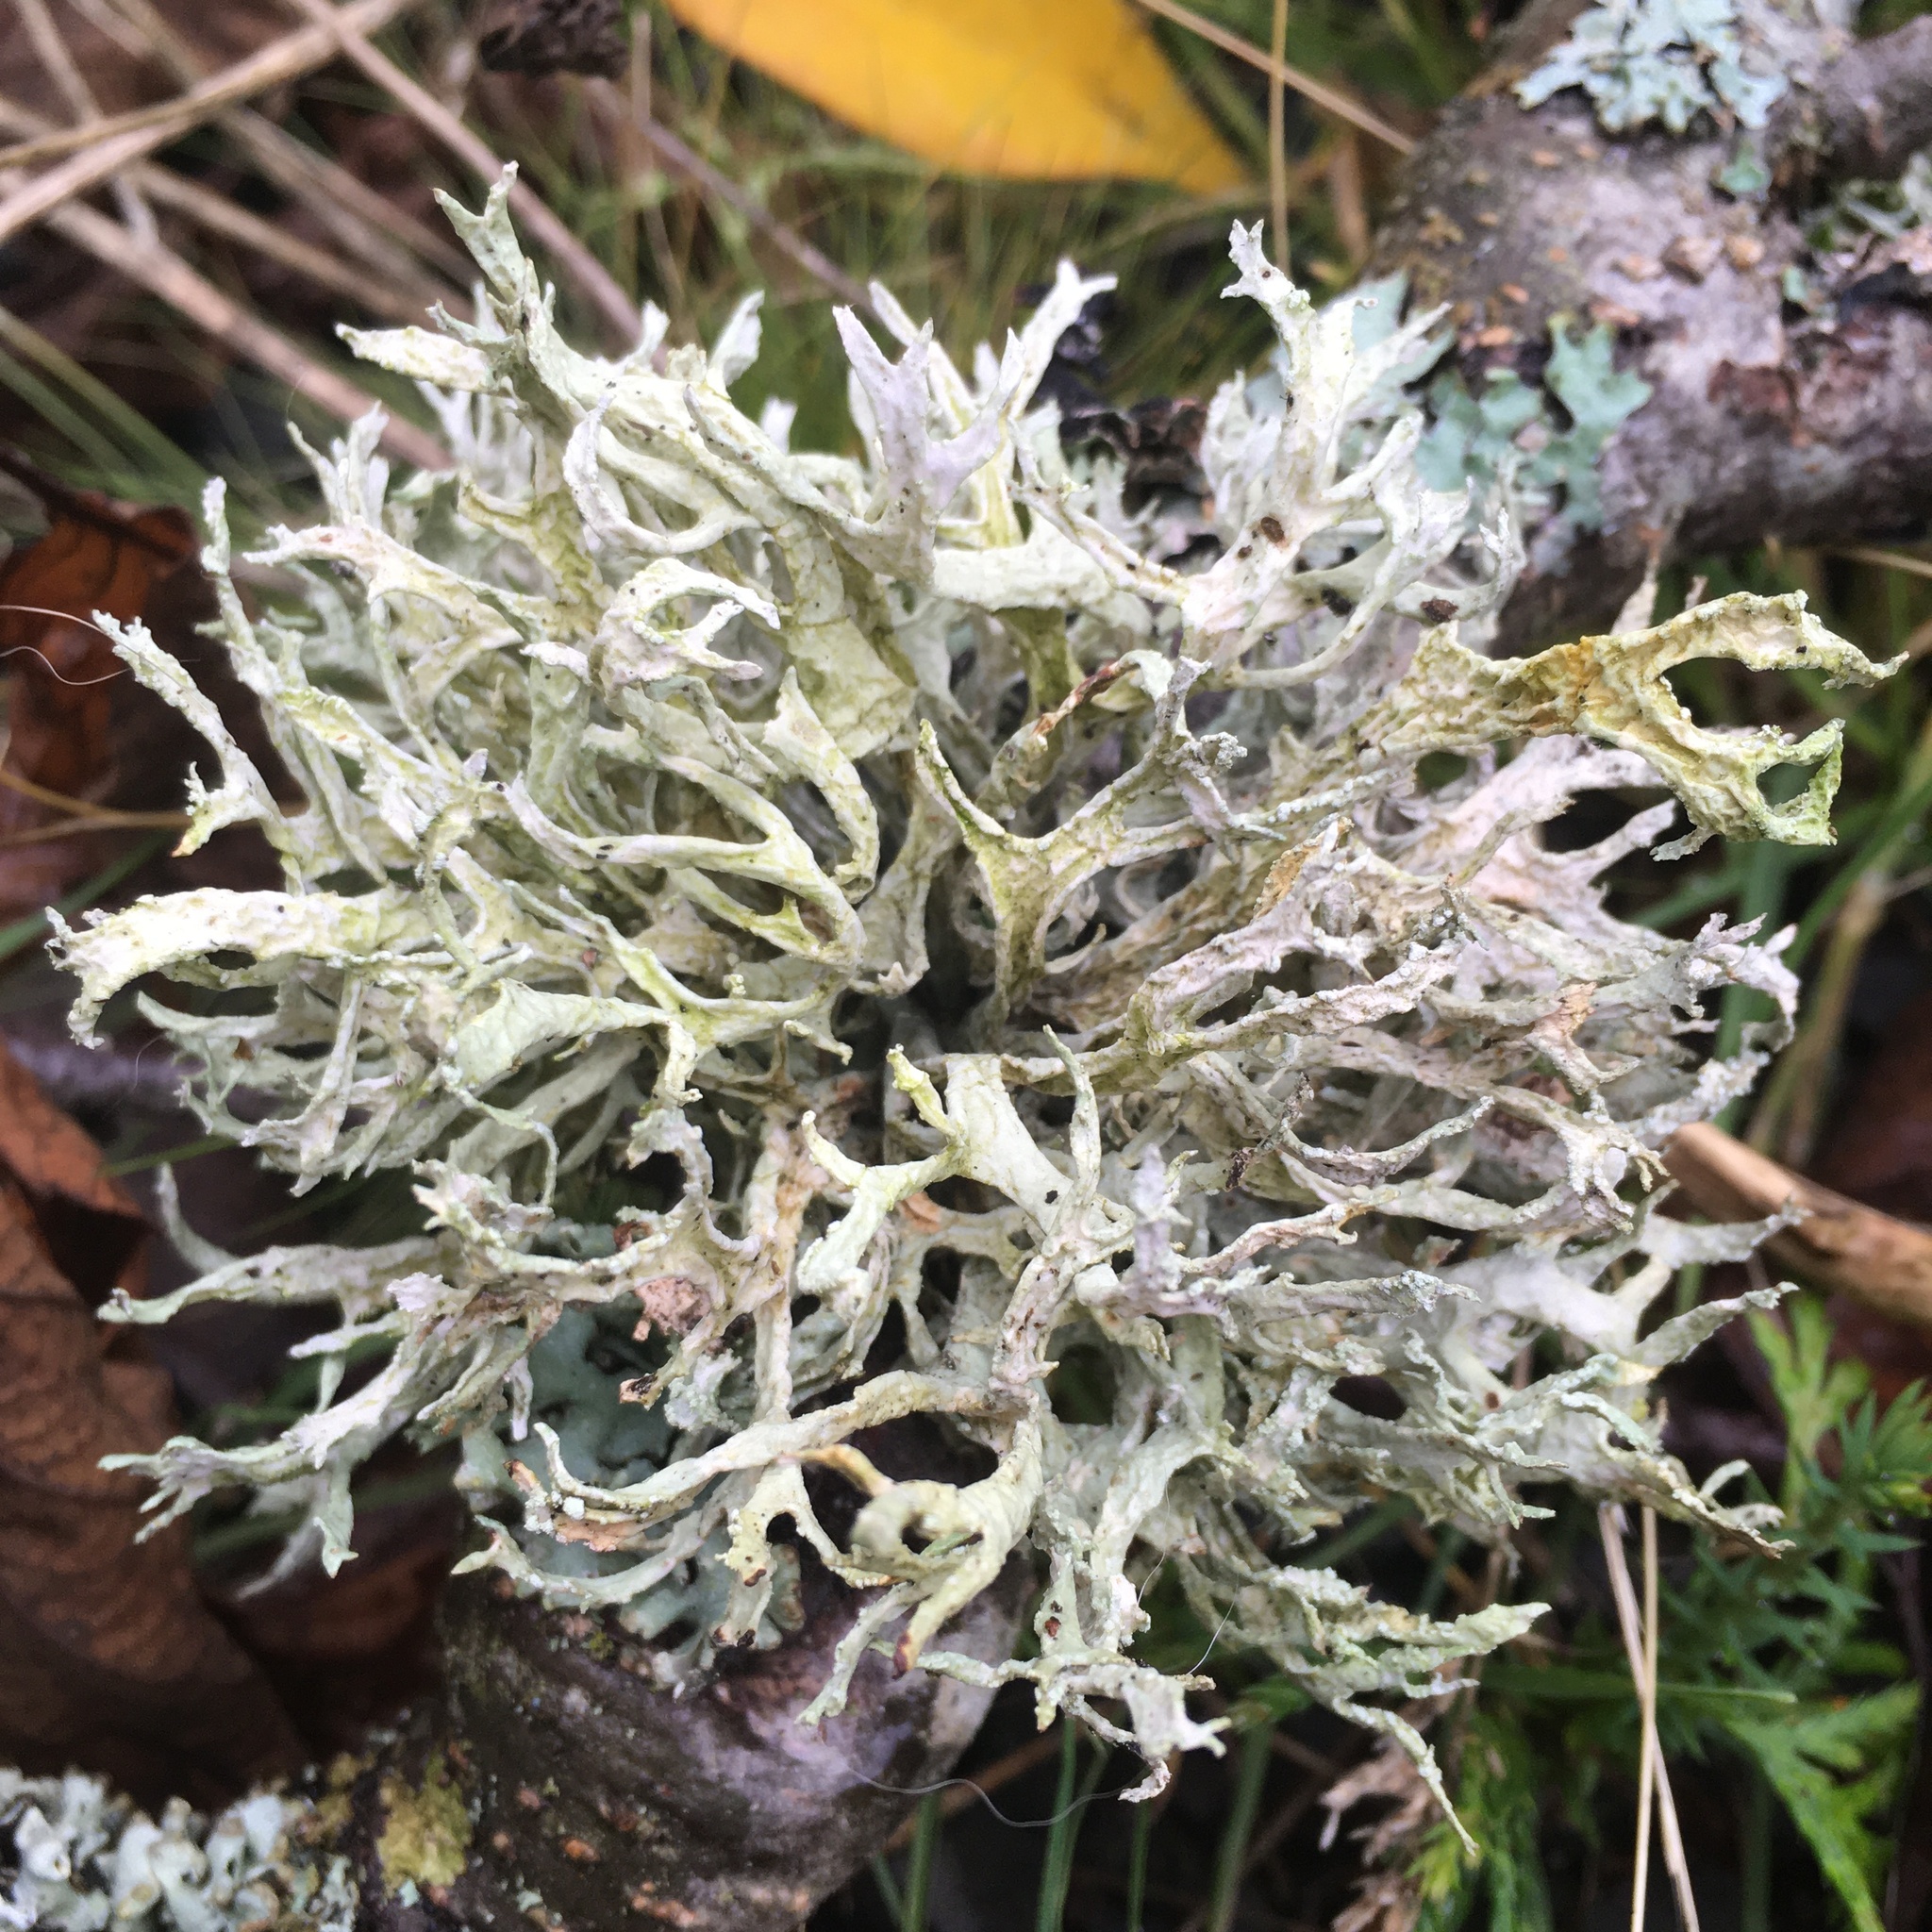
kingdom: Fungi
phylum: Ascomycota
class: Lecanoromycetes
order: Lecanorales
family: Parmeliaceae
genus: Evernia
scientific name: Evernia prunastri
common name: Oak moss
